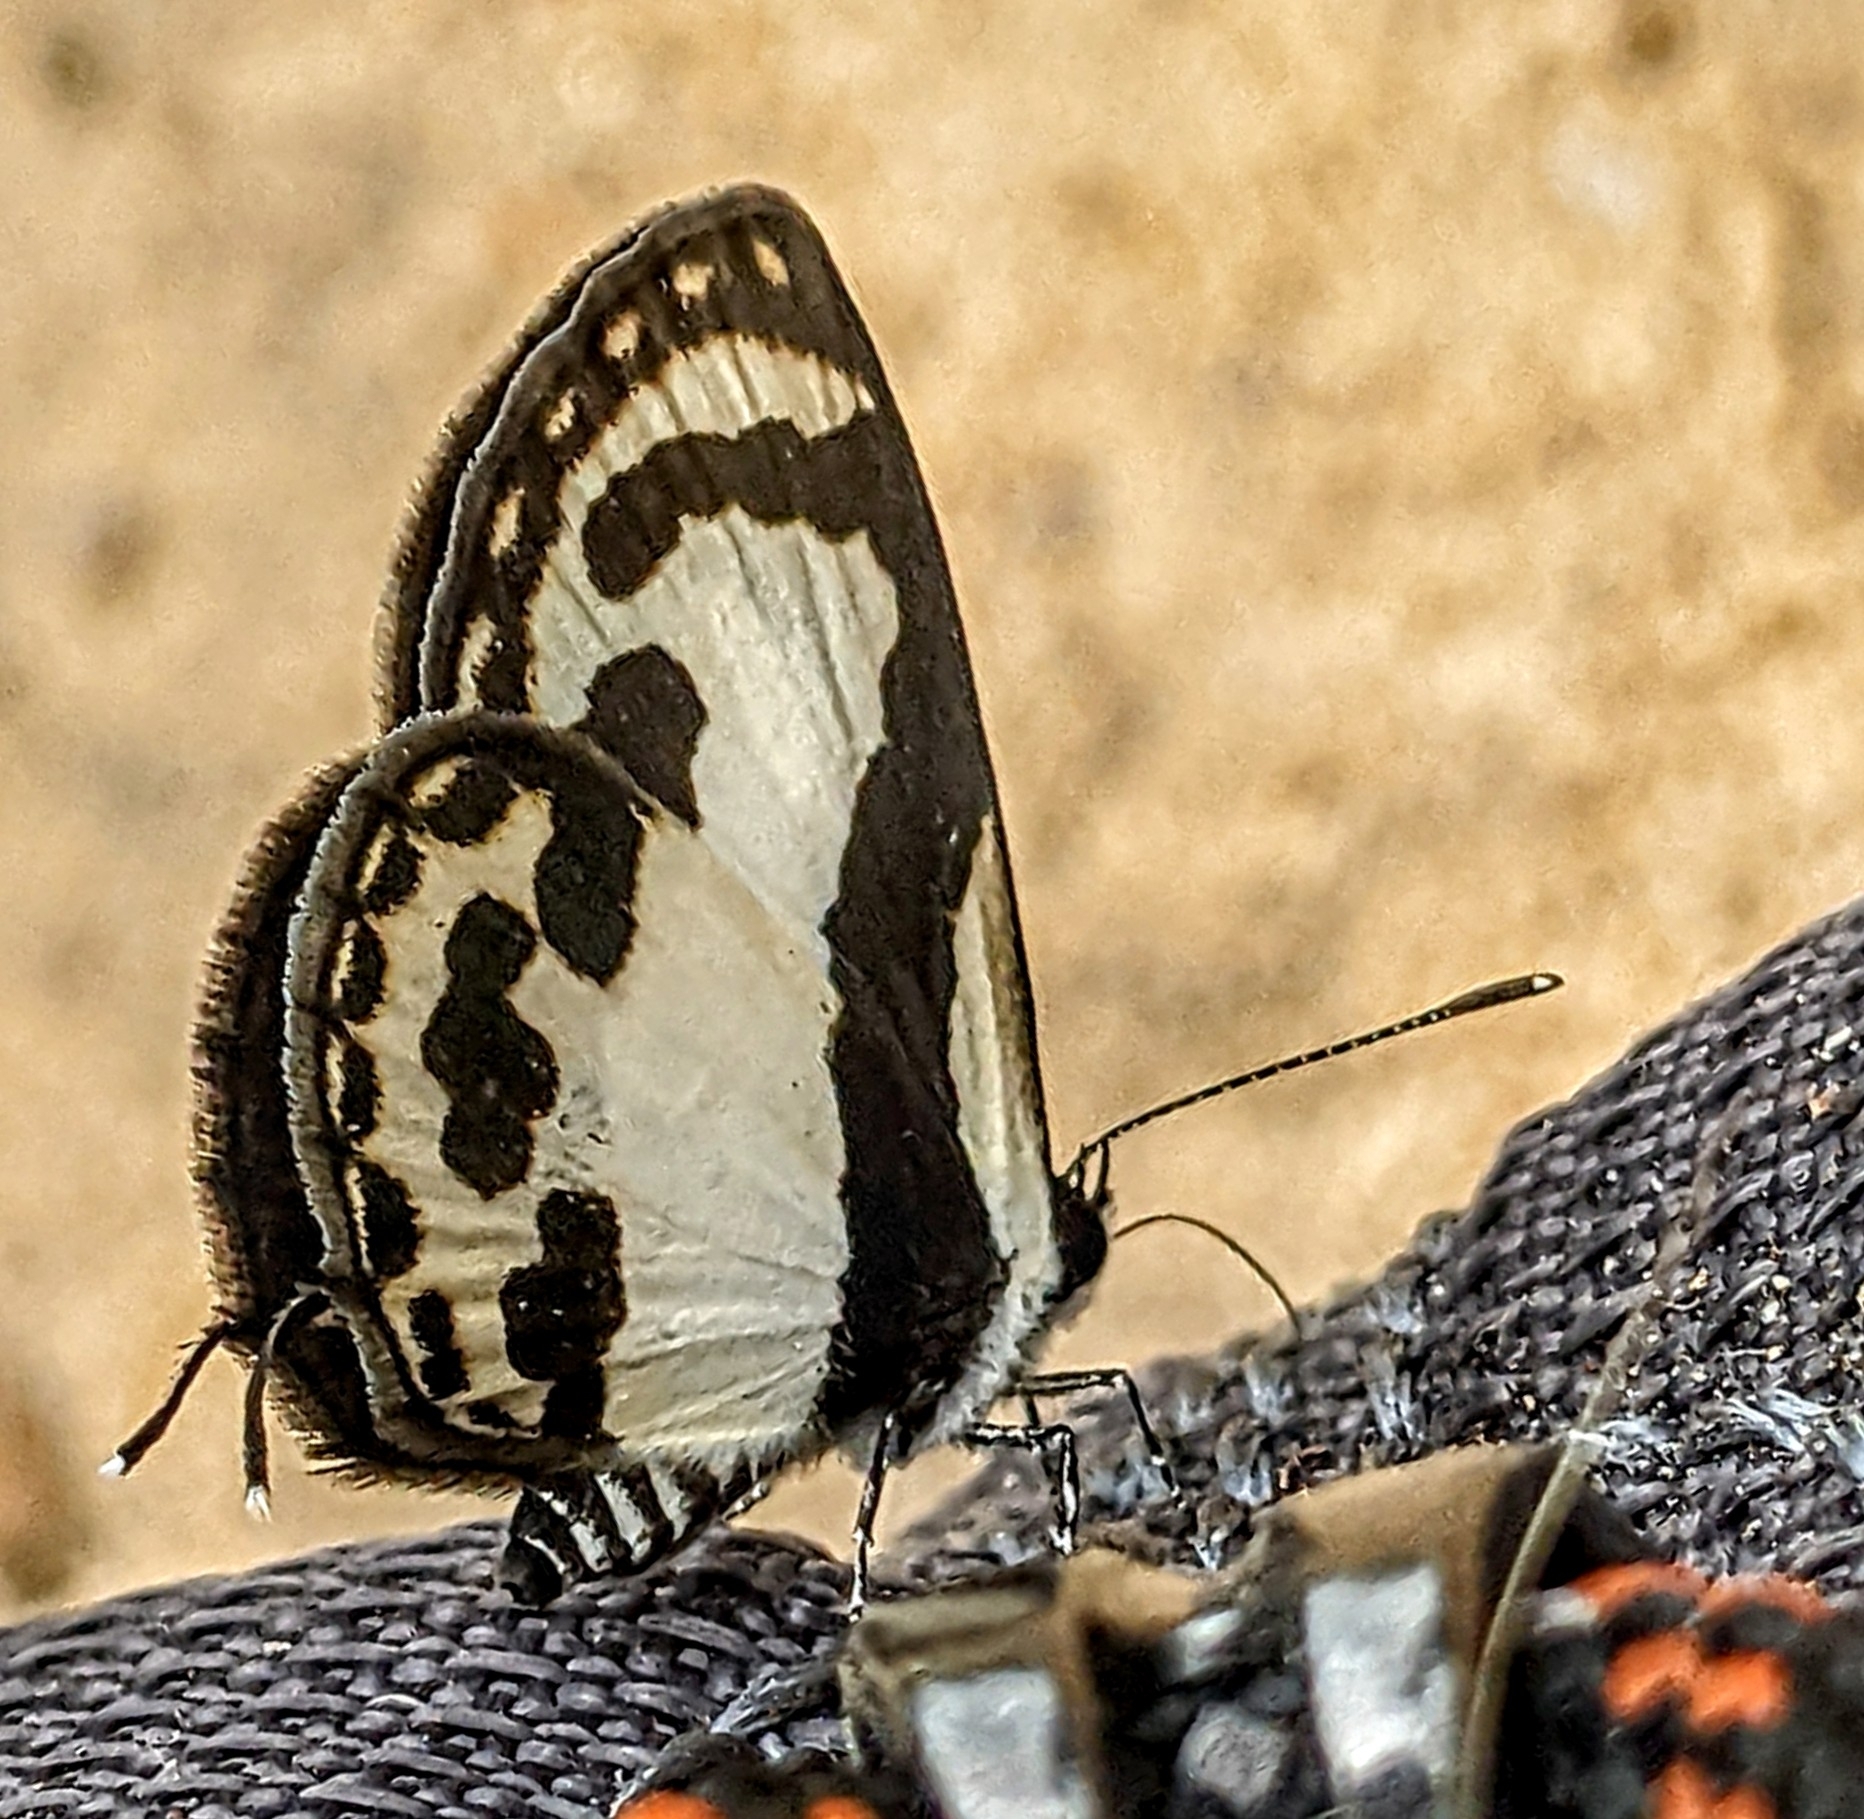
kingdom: Animalia
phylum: Arthropoda
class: Insecta
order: Lepidoptera
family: Lycaenidae
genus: Caleta
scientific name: Caleta roxus
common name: Straight pierrot
